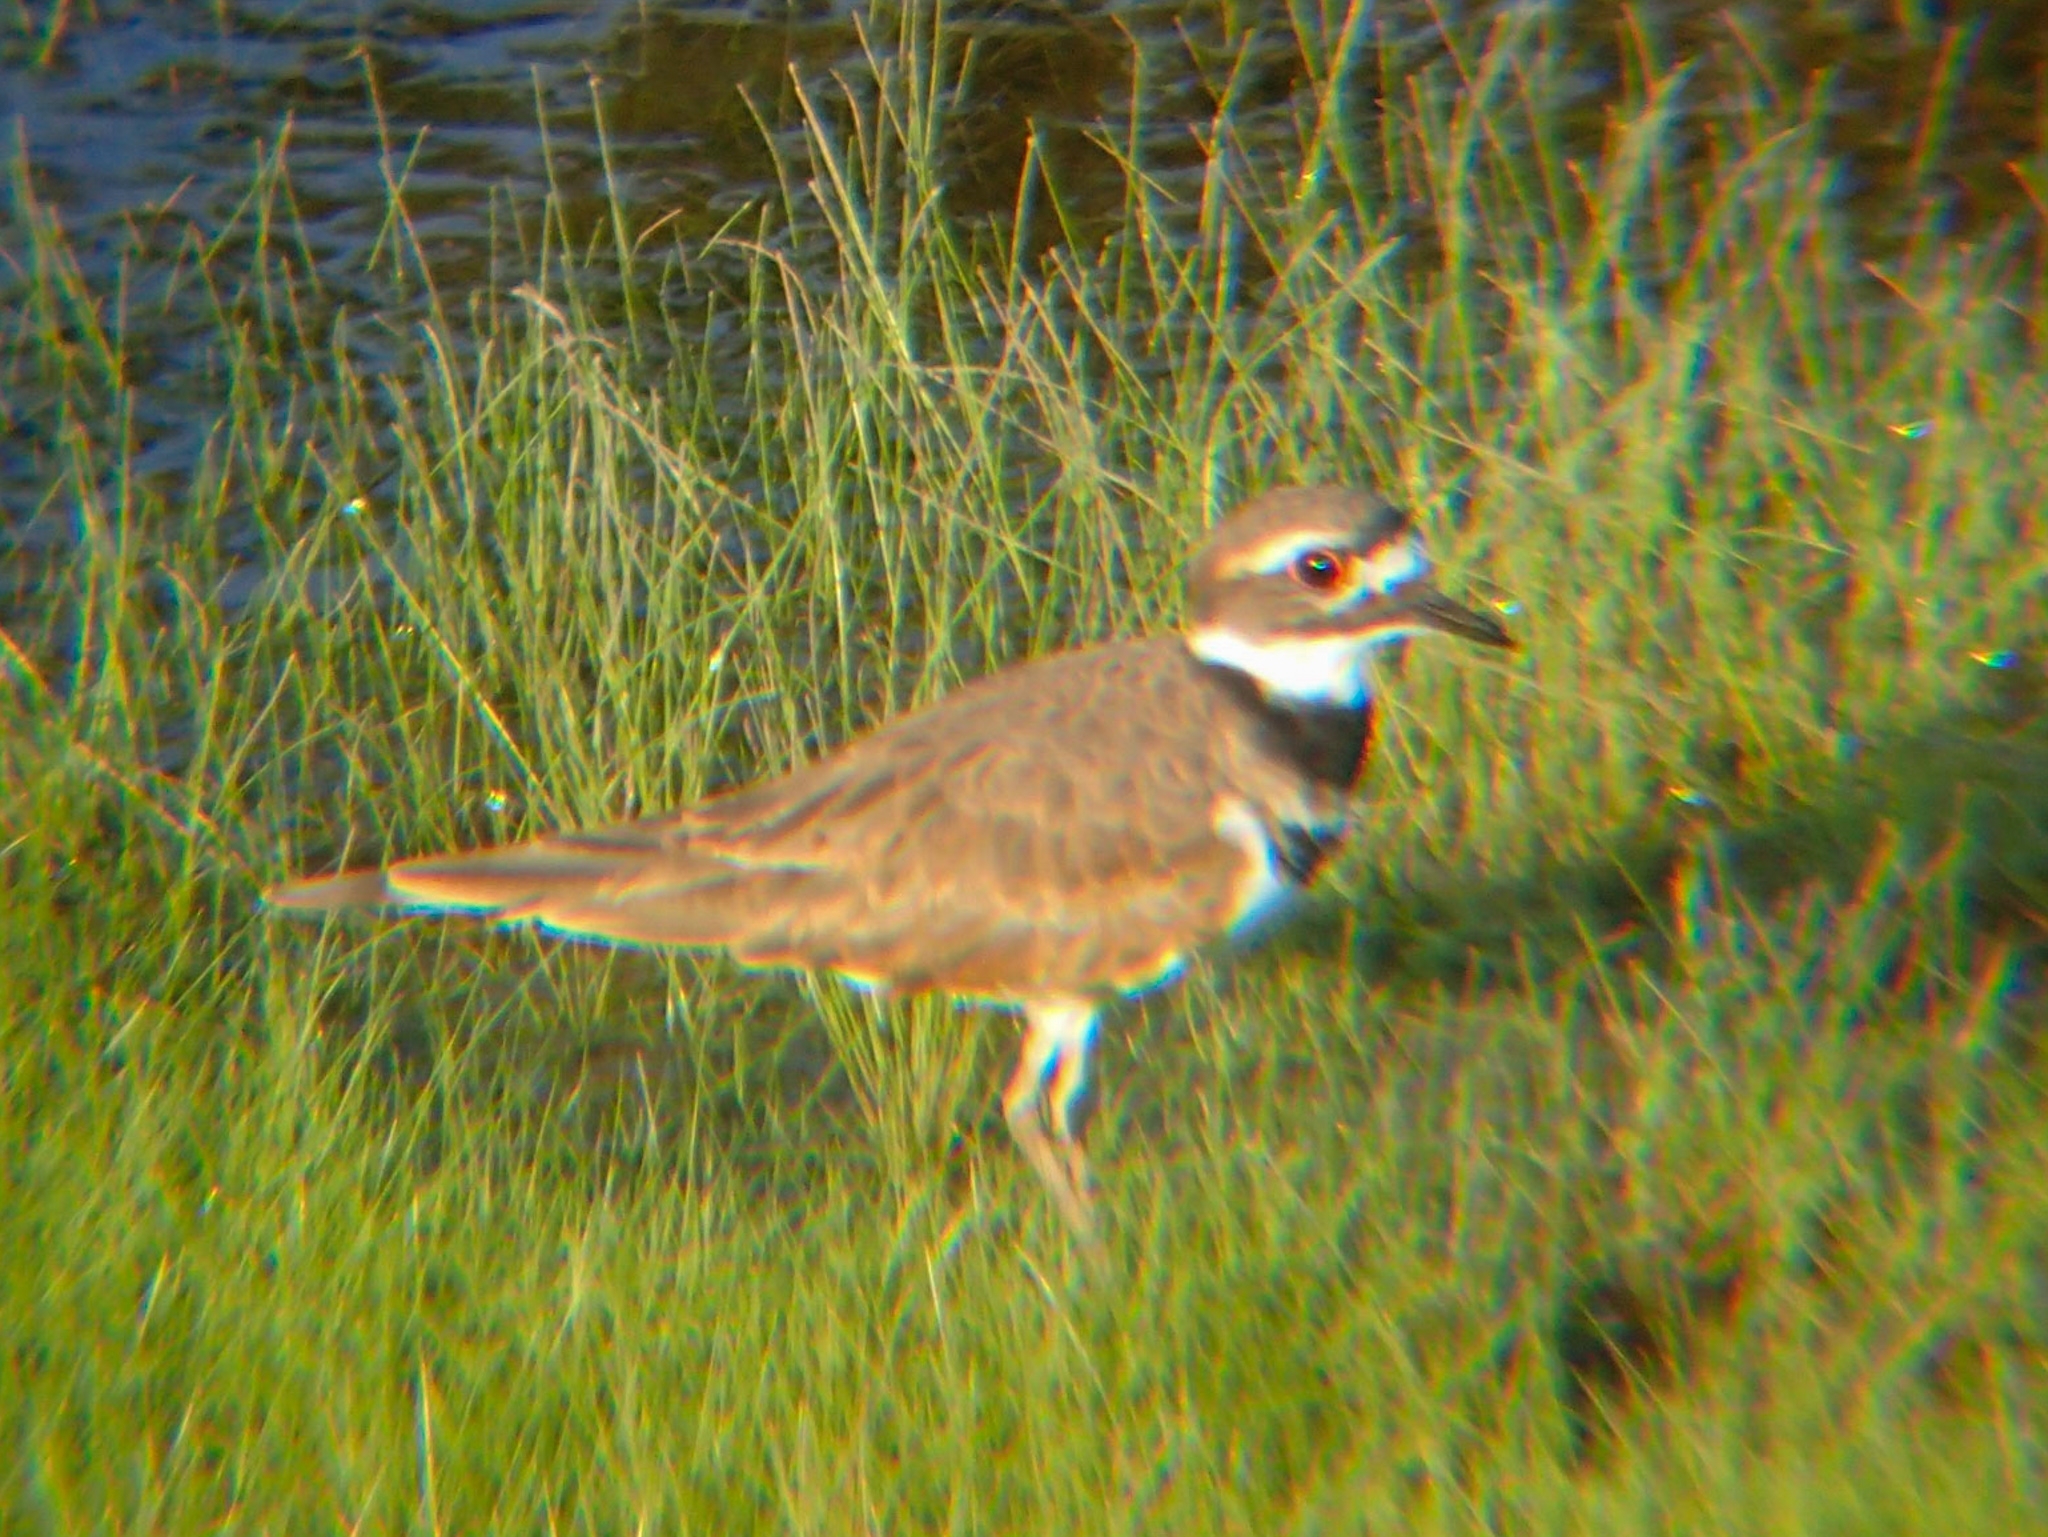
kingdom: Animalia
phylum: Chordata
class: Aves
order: Charadriiformes
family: Charadriidae
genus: Charadrius
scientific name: Charadrius vociferus
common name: Killdeer
